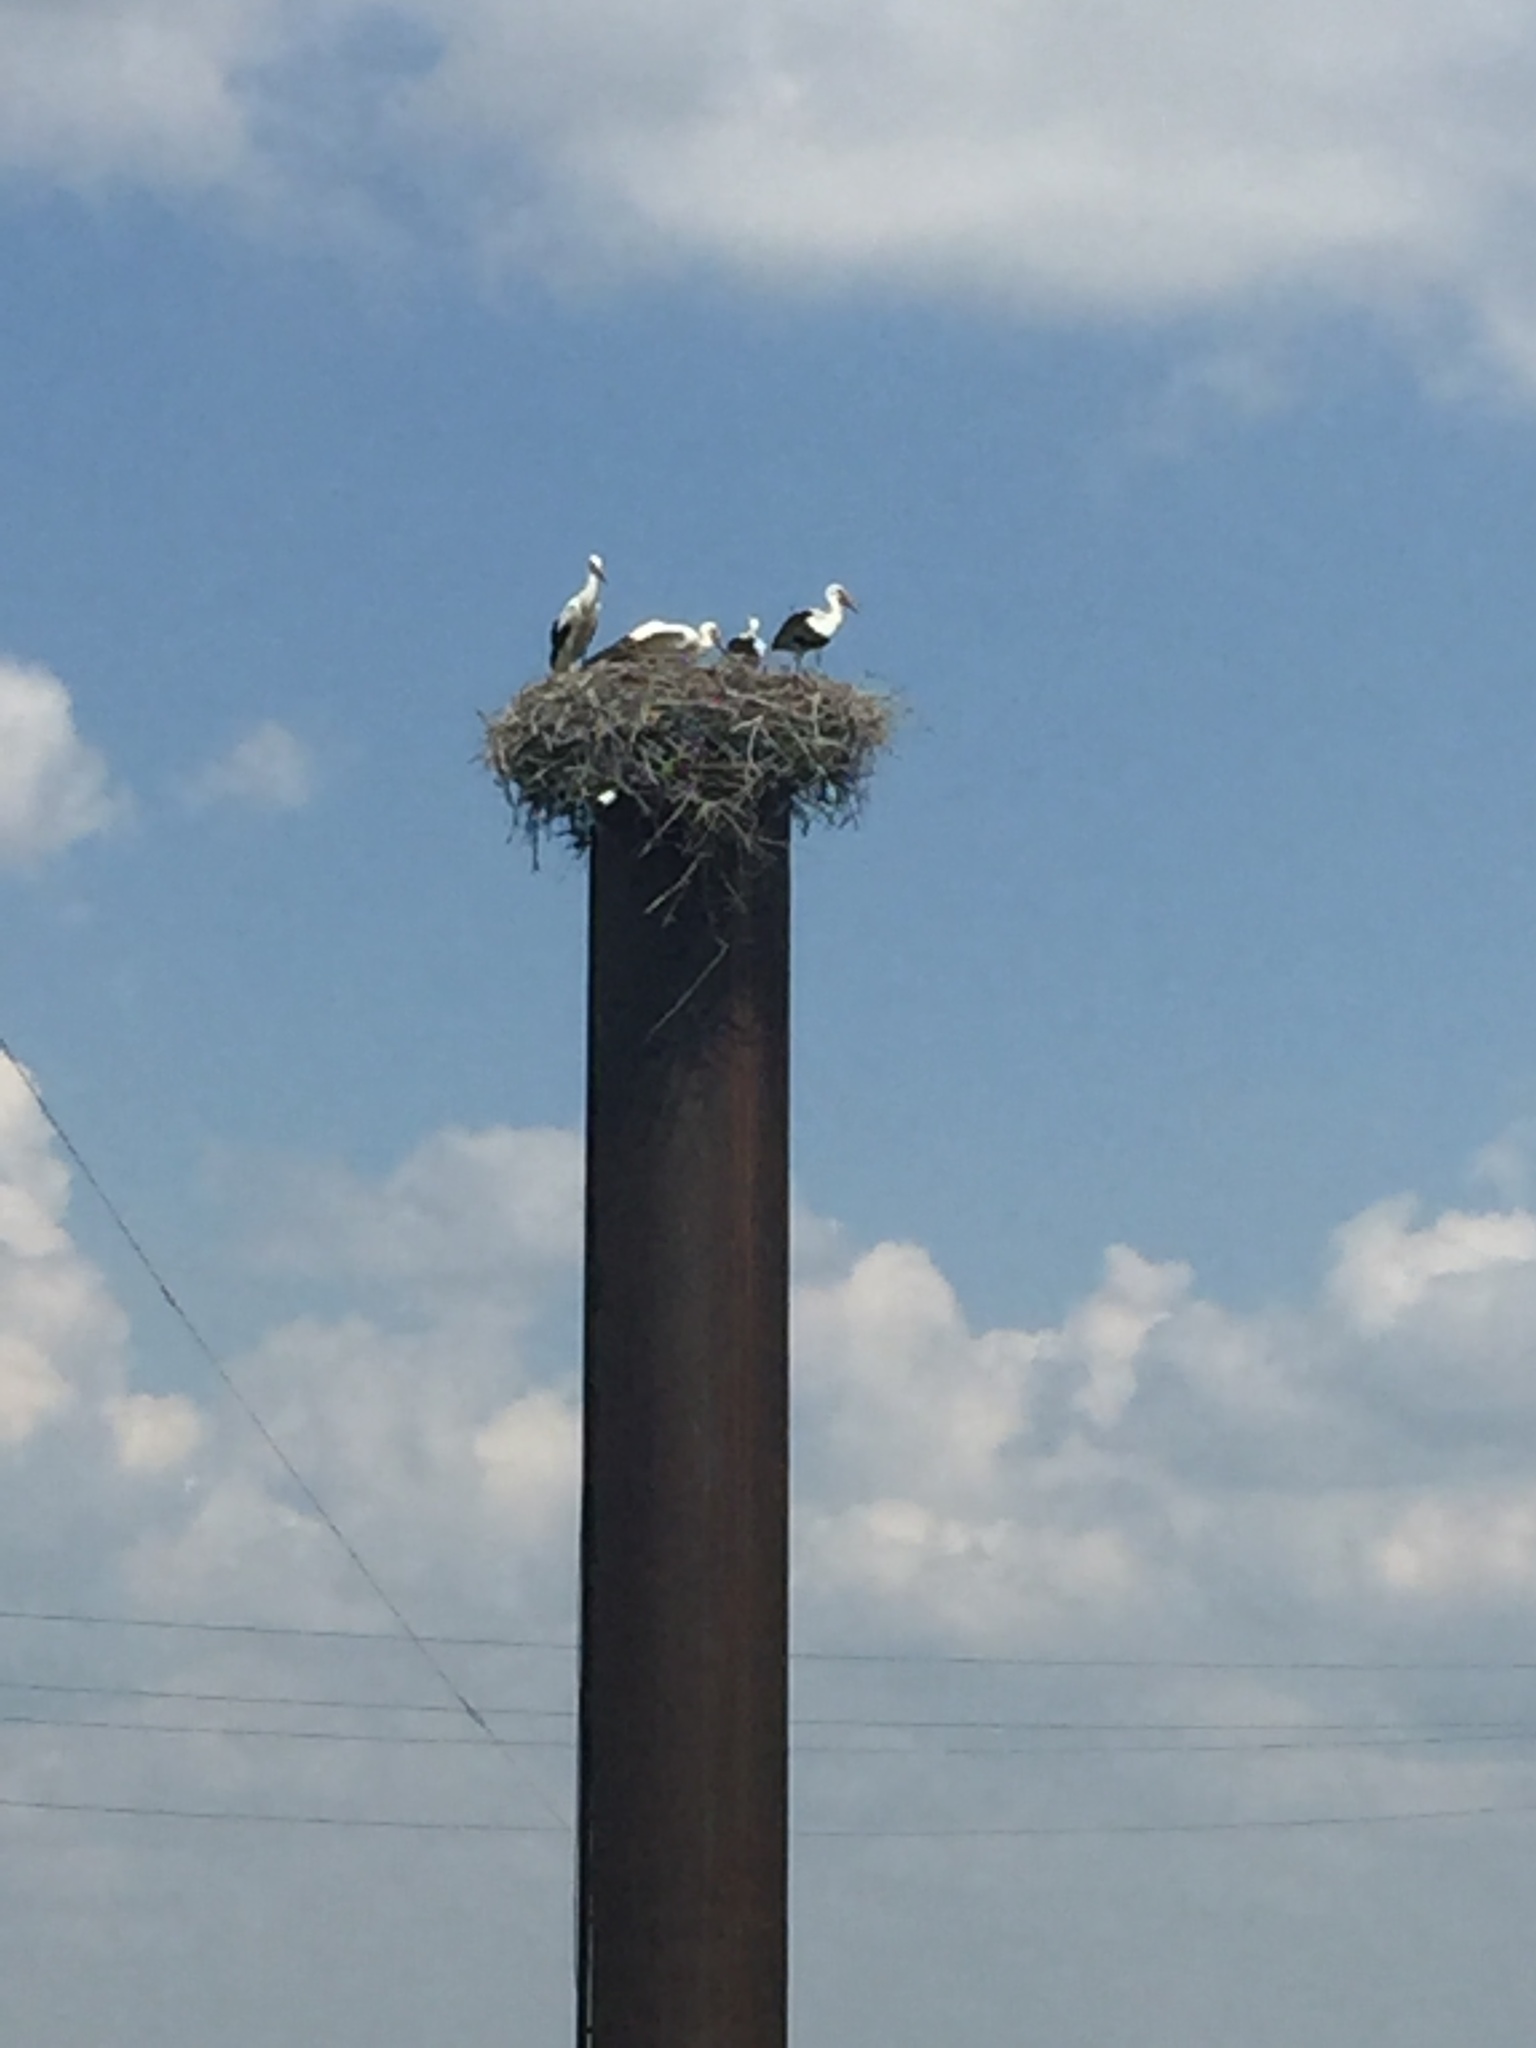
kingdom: Animalia
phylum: Chordata
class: Aves
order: Ciconiiformes
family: Ciconiidae
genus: Ciconia
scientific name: Ciconia ciconia
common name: White stork
